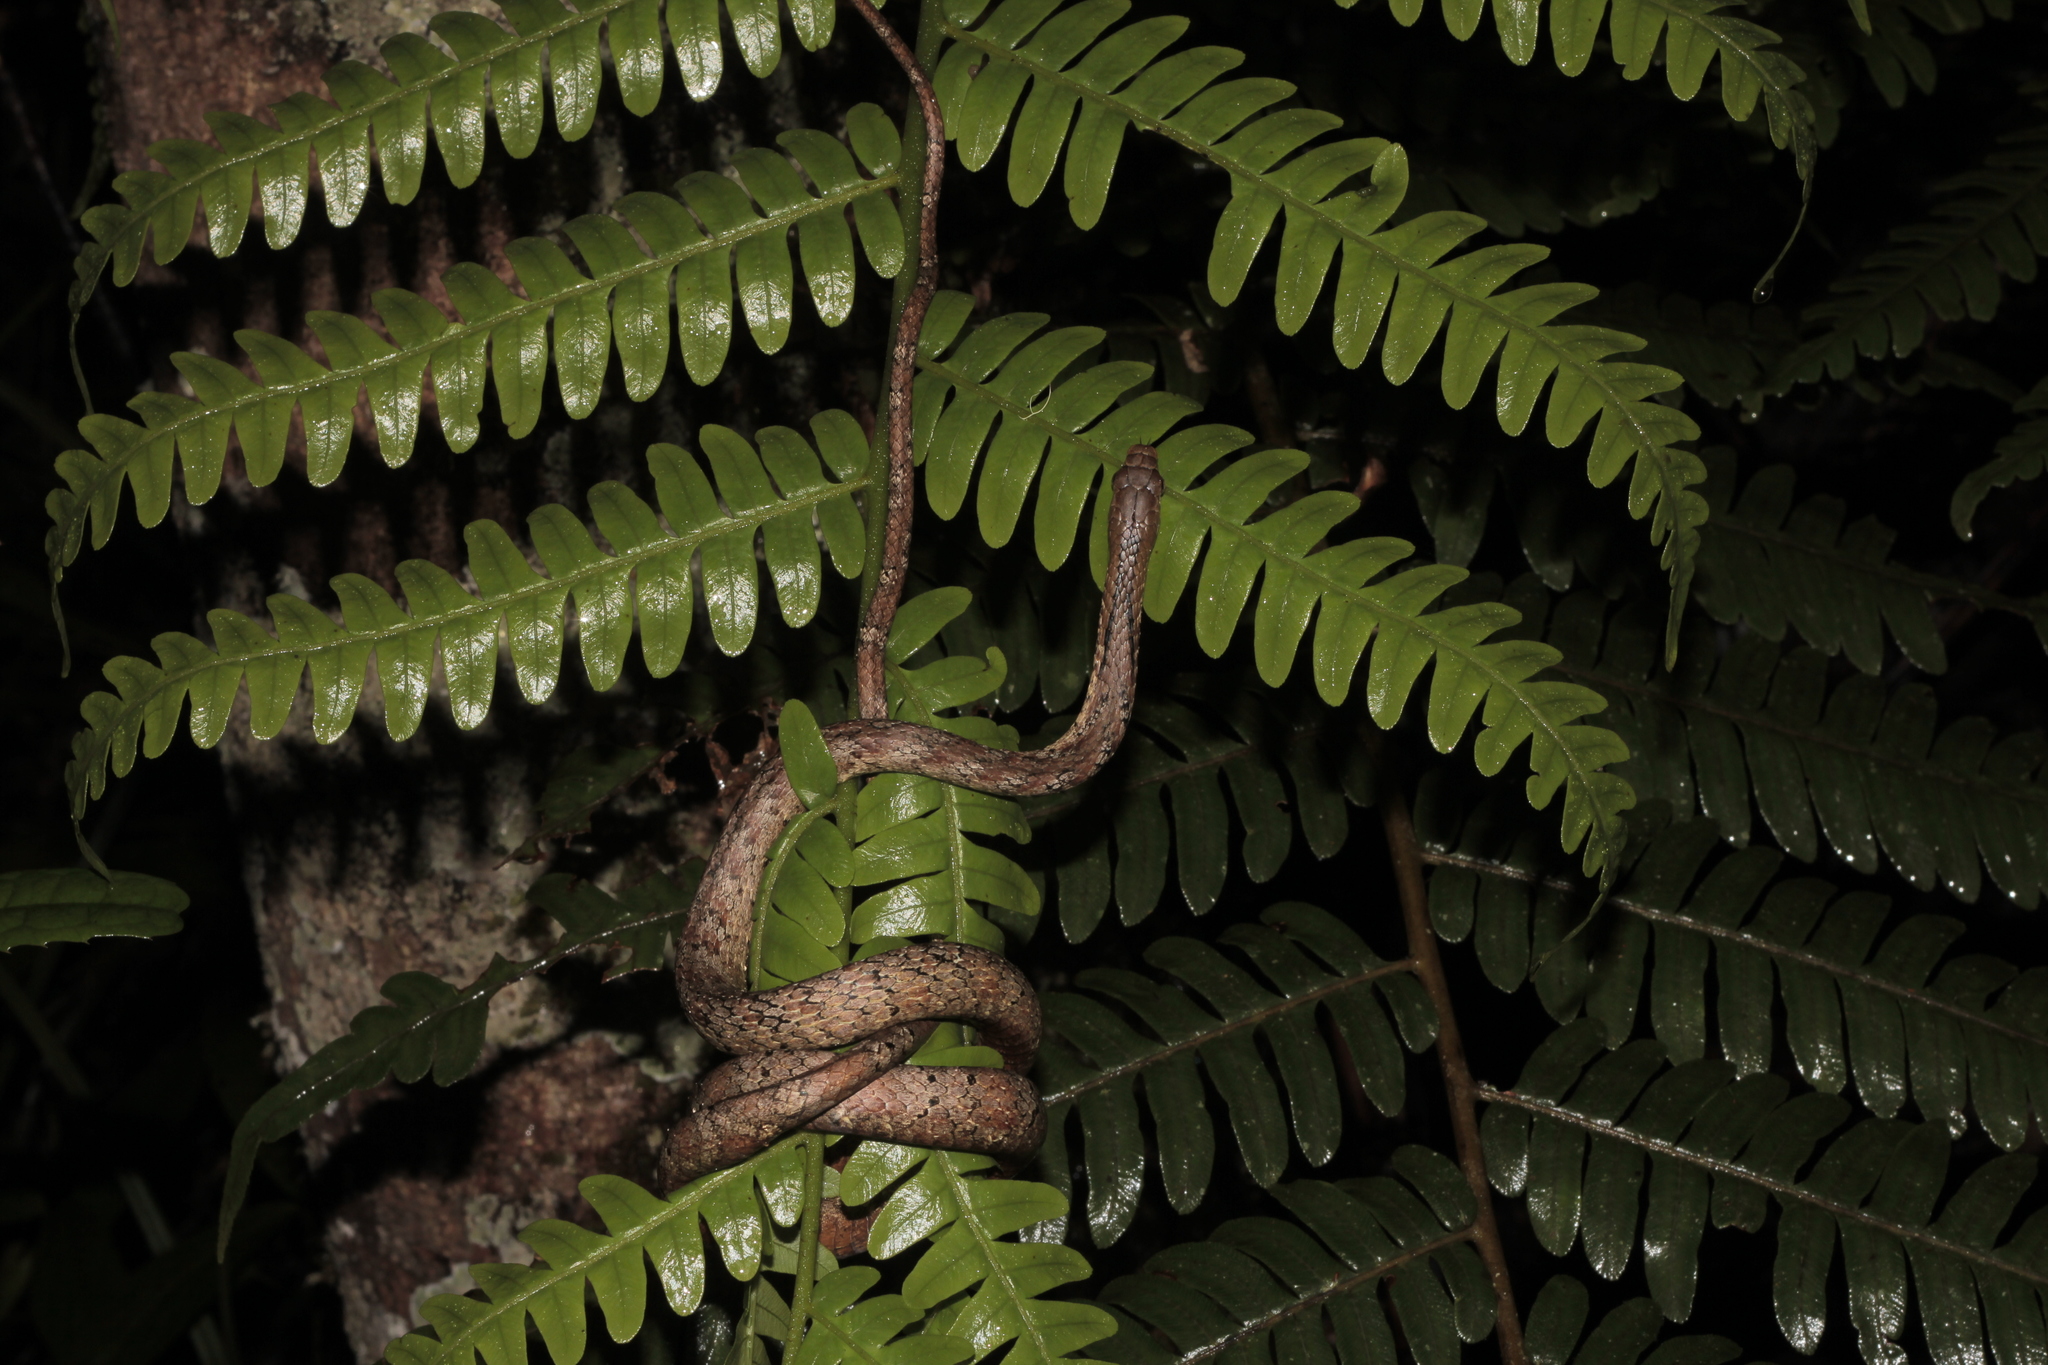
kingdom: Animalia
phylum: Chordata
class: Squamata
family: Pseudoxyrhophiidae
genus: Micropisthodon
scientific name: Micropisthodon ochraceus
